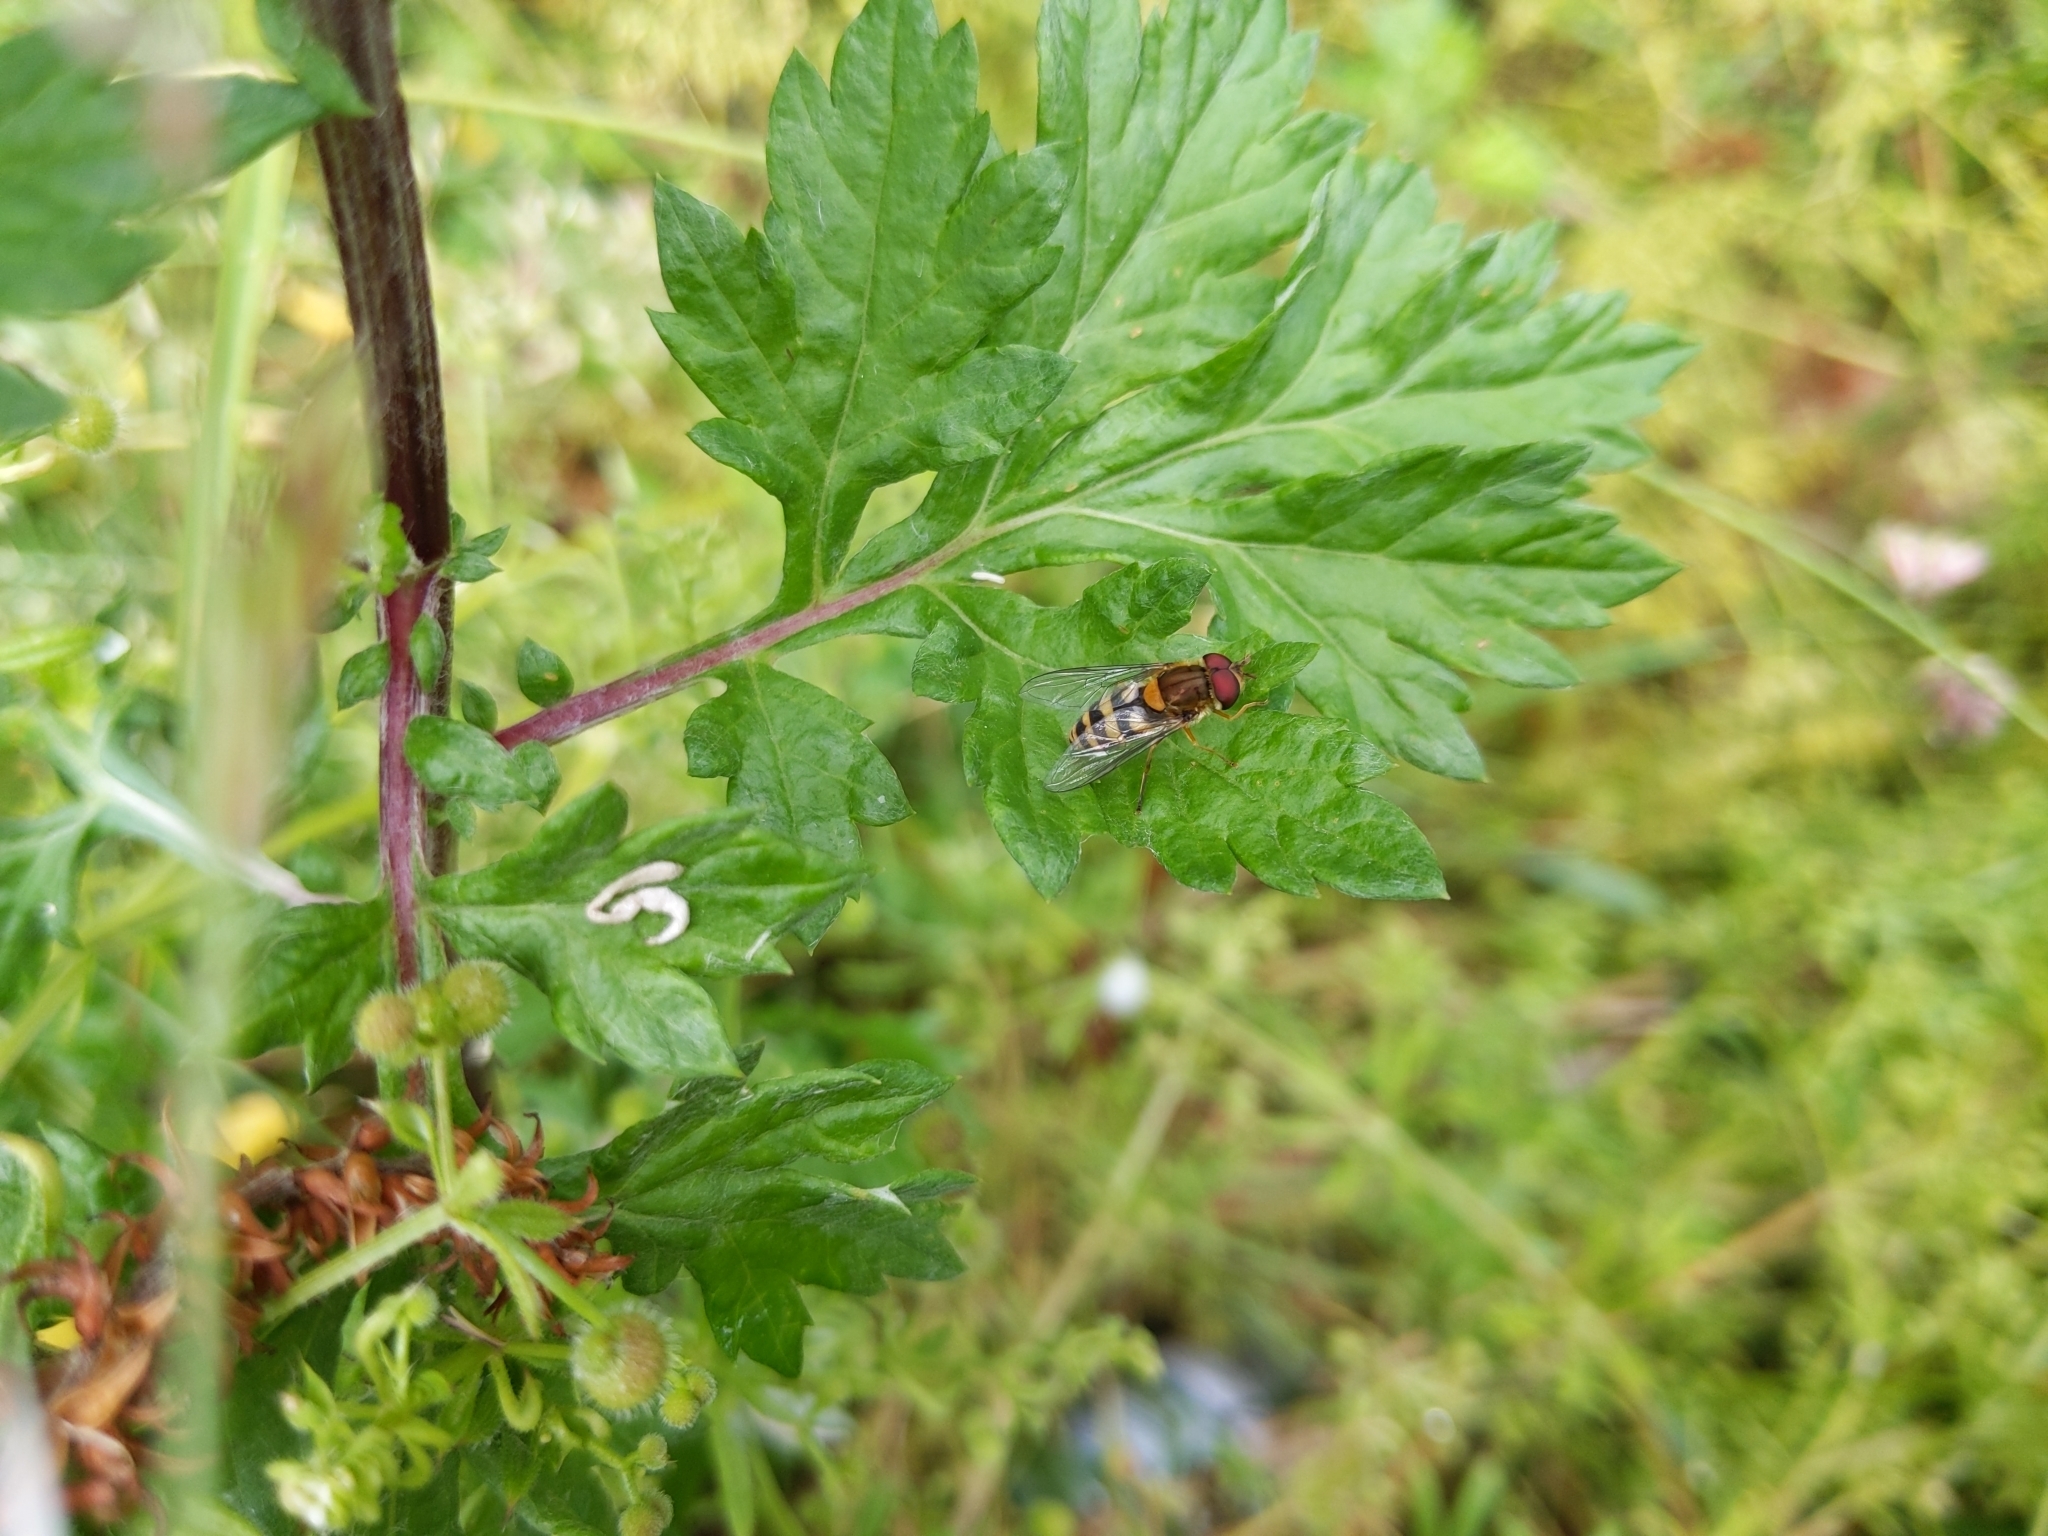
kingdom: Animalia
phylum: Arthropoda
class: Insecta
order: Diptera
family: Syrphidae
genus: Syrphus
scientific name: Syrphus
